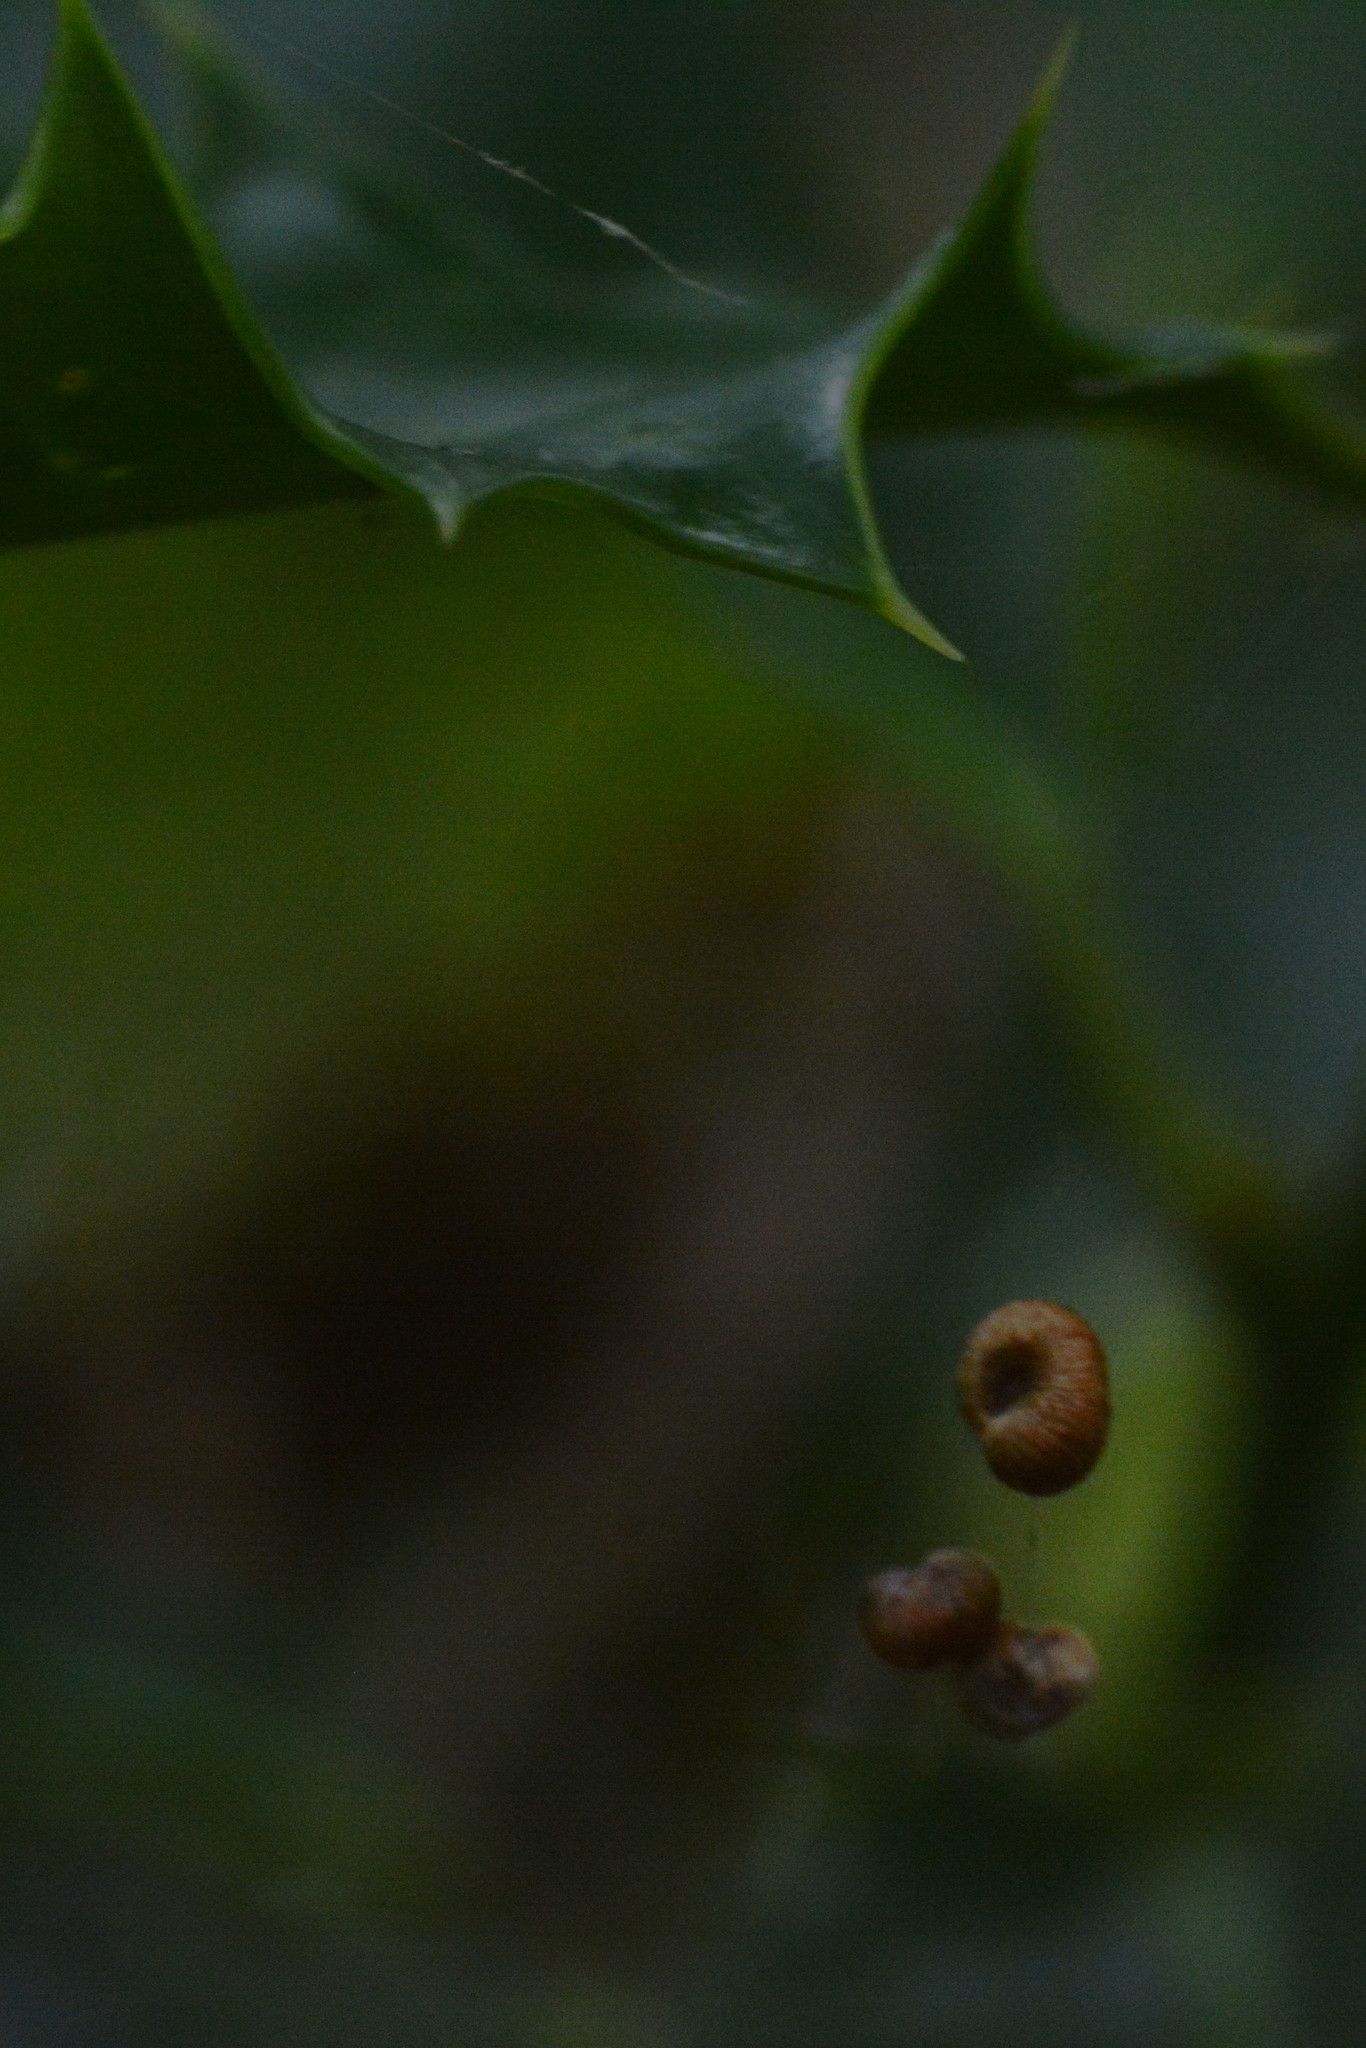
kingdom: Animalia
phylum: Arthropoda
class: Insecta
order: Hymenoptera
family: Cynipidae
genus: Neuroterus
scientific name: Neuroterus numismalis
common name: Silk-button spangle gall
